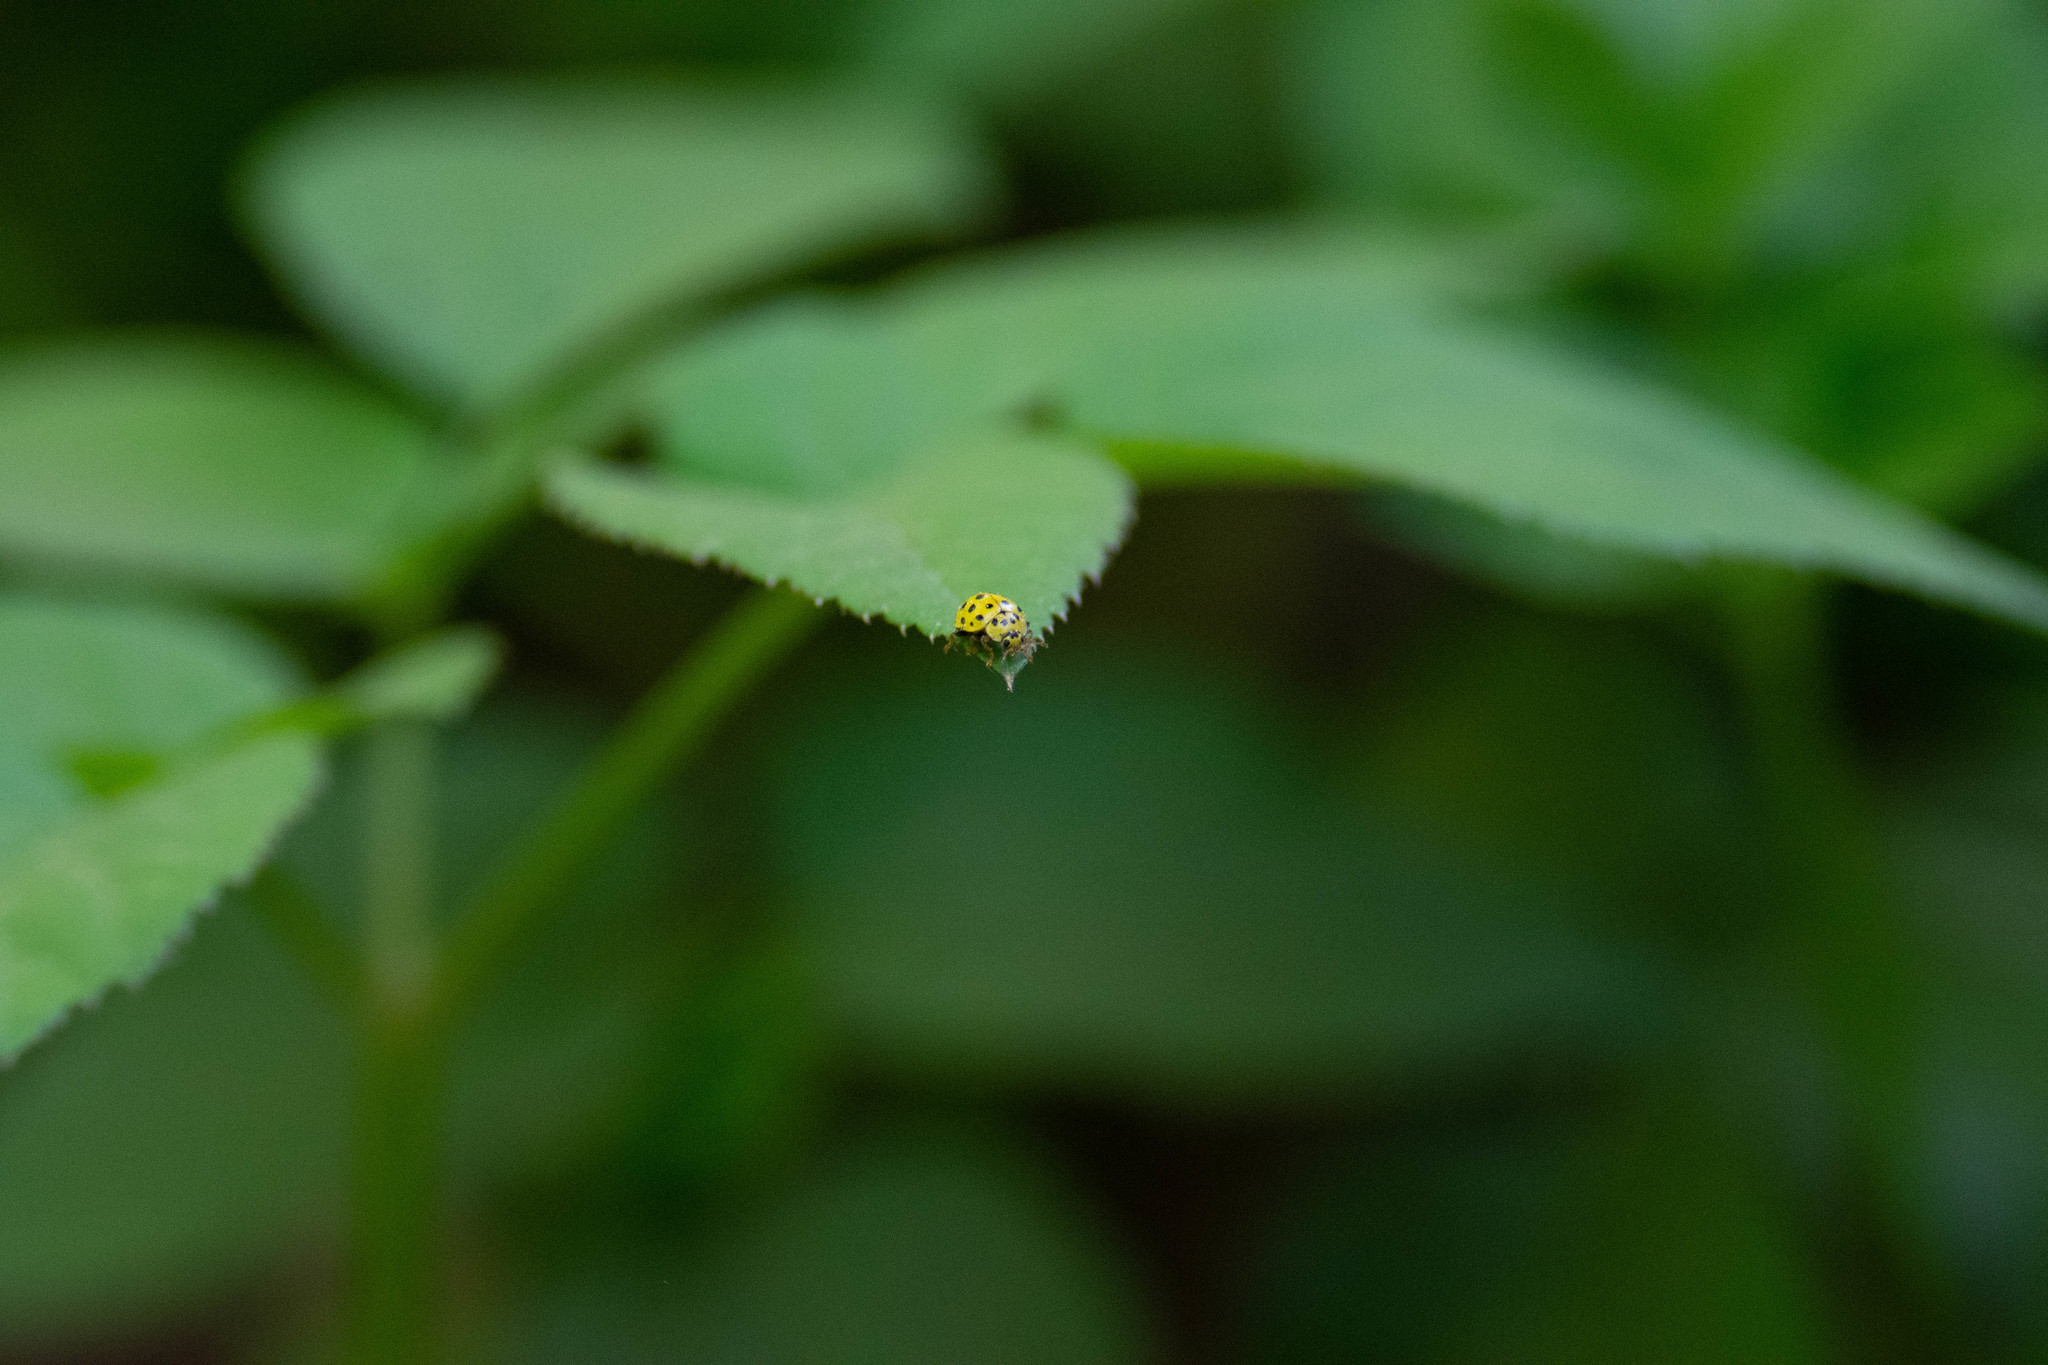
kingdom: Animalia
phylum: Arthropoda
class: Insecta
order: Coleoptera
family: Coccinellidae
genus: Psyllobora
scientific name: Psyllobora vigintiduopunctata
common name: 22-spot ladybird
